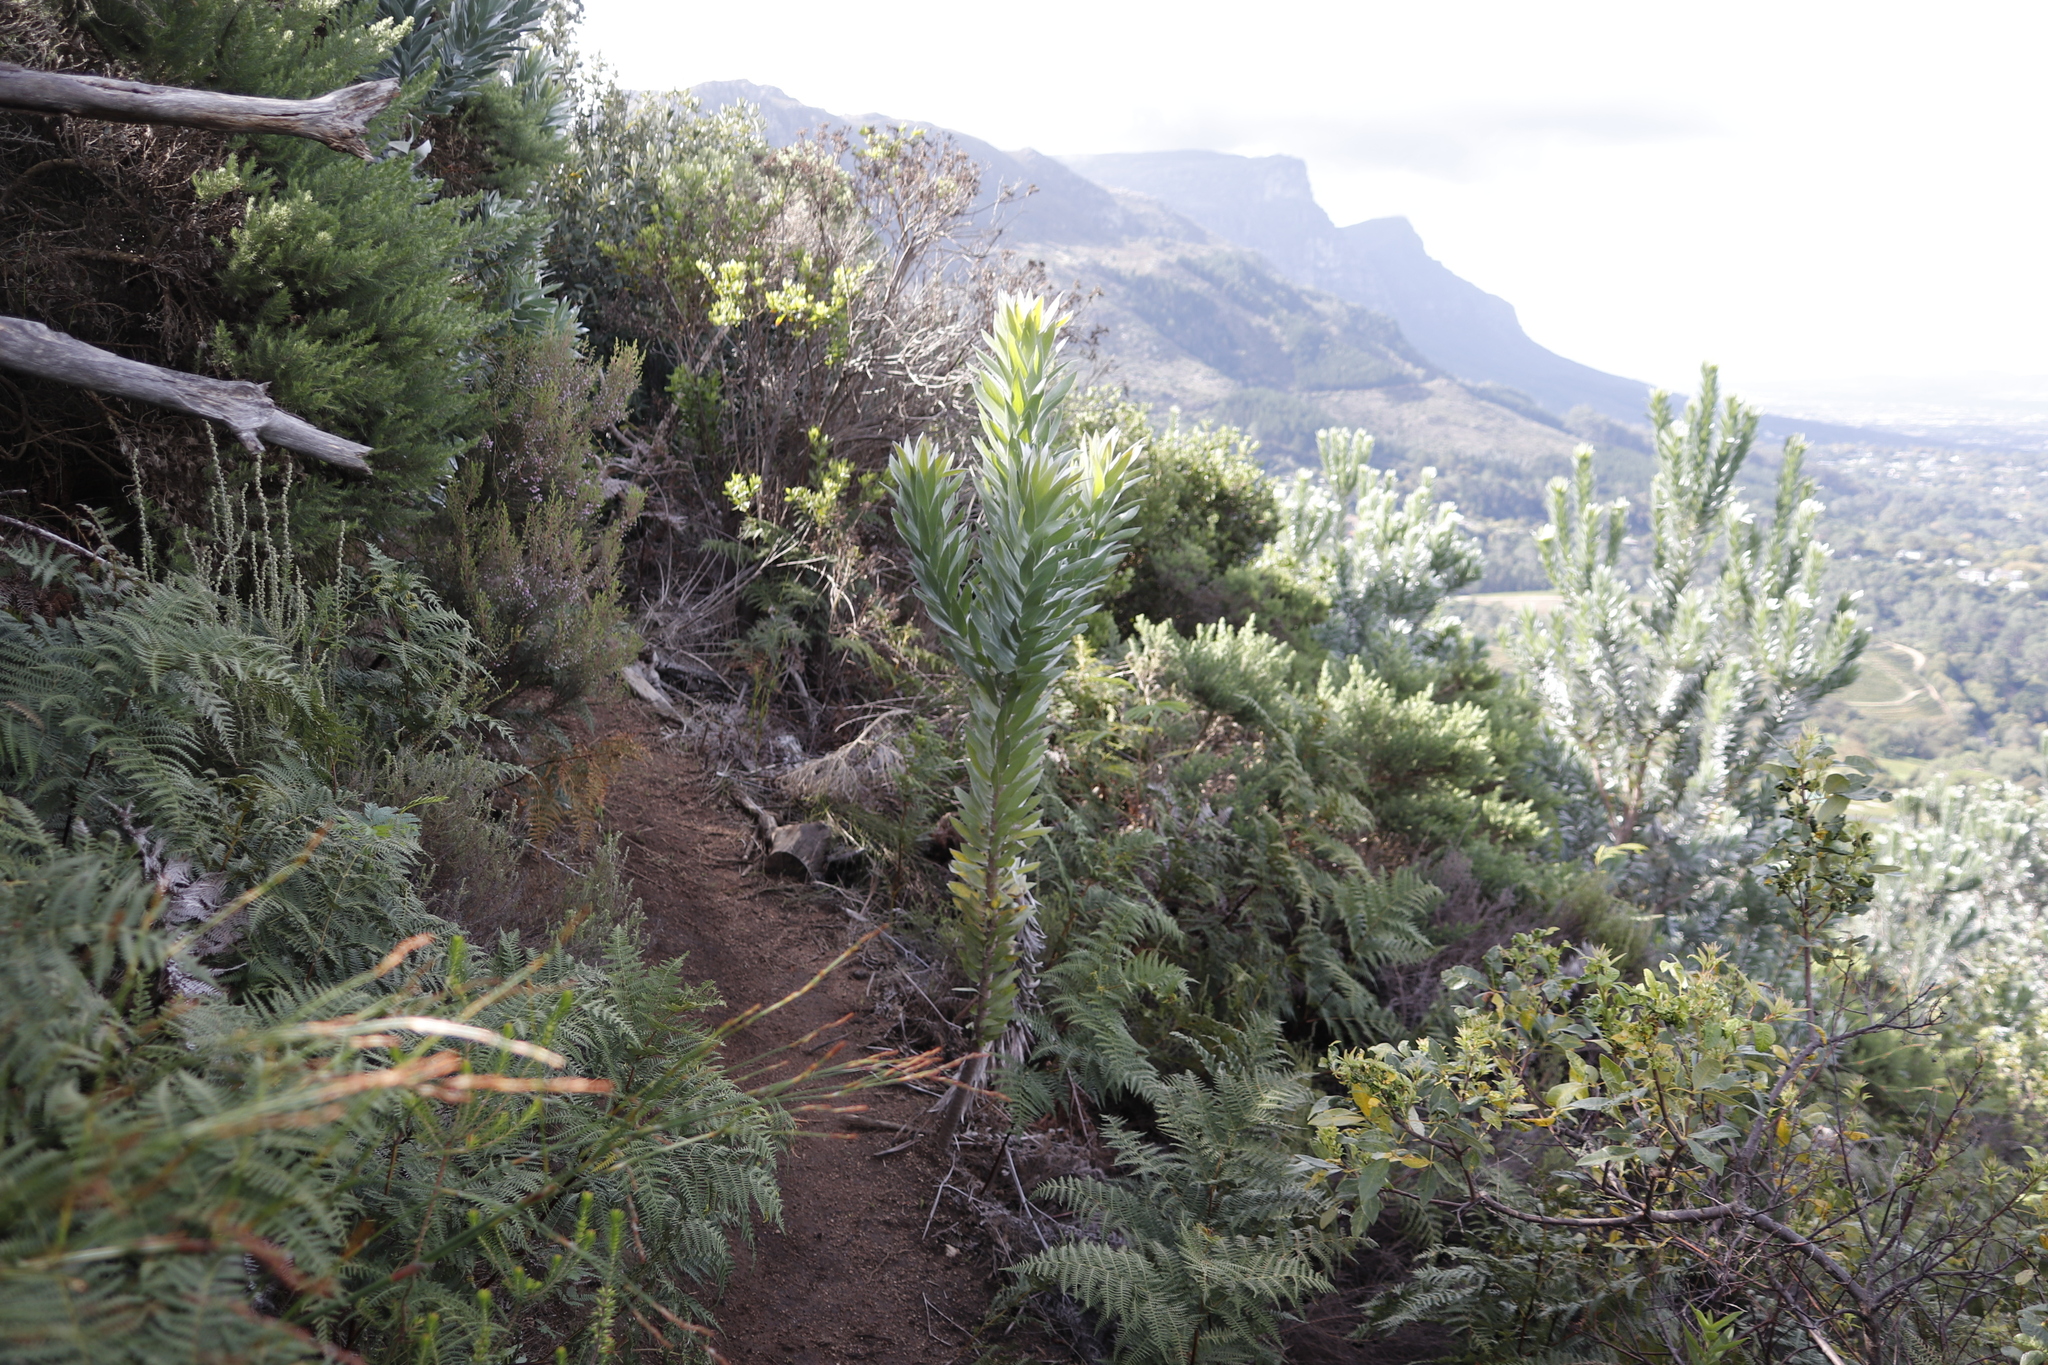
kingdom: Plantae
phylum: Tracheophyta
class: Magnoliopsida
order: Proteales
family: Proteaceae
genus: Leucadendron
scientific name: Leucadendron argenteum
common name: Cape silver tree
